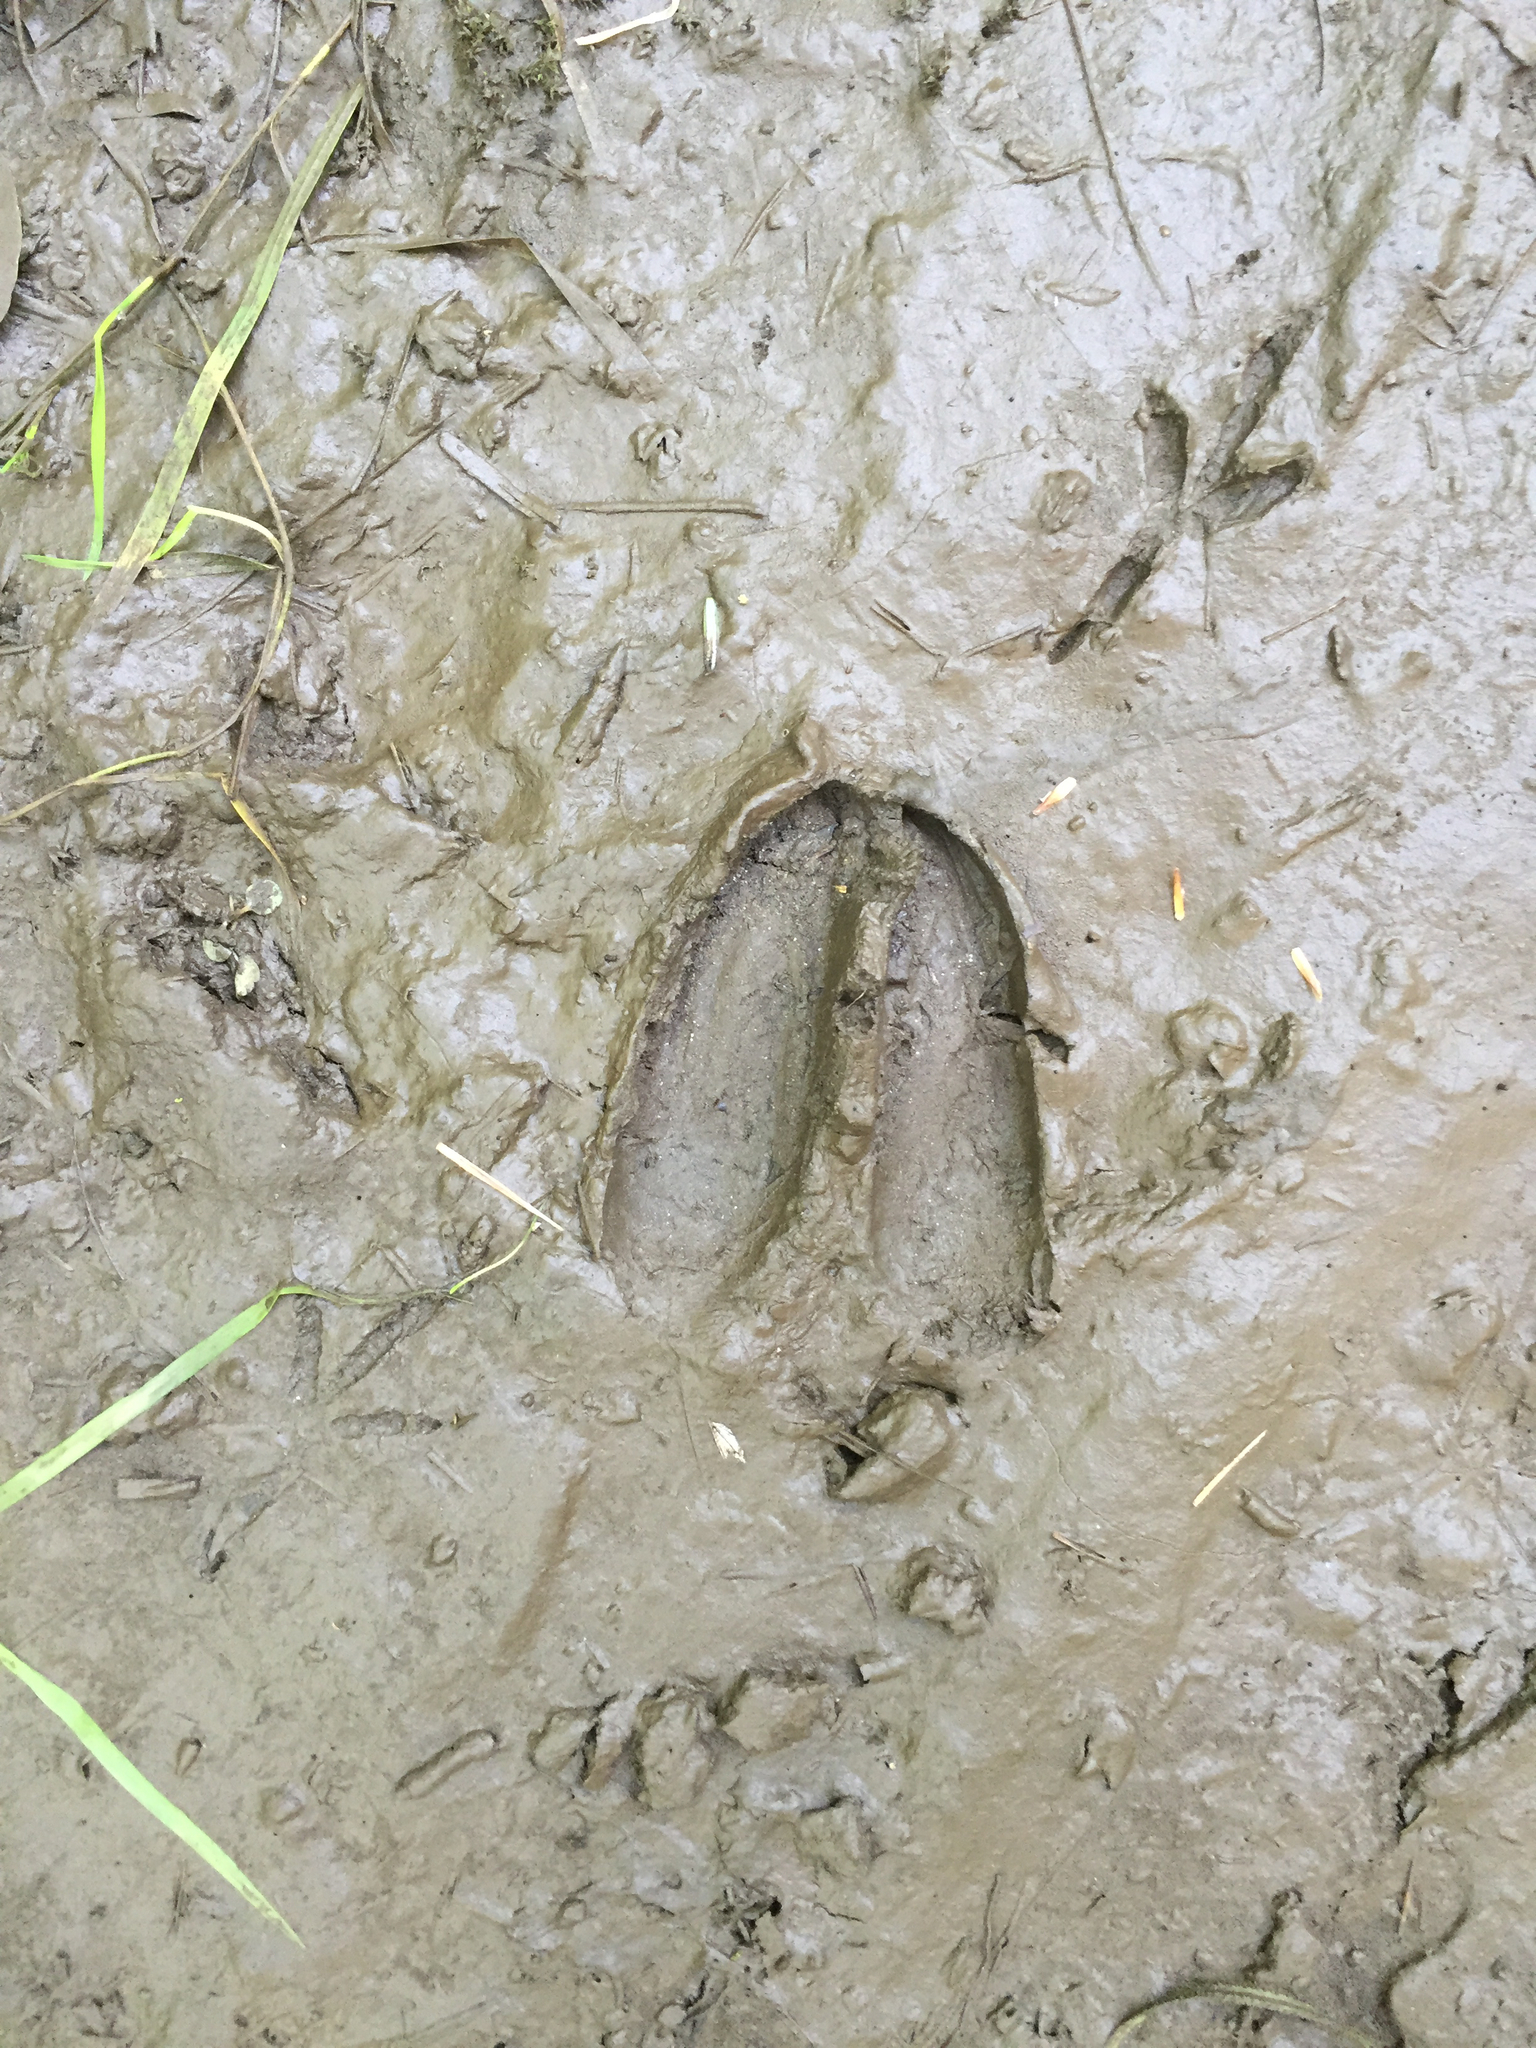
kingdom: Animalia
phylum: Chordata
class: Mammalia
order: Artiodactyla
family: Cervidae
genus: Odocoileus
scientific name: Odocoileus virginianus
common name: White-tailed deer
